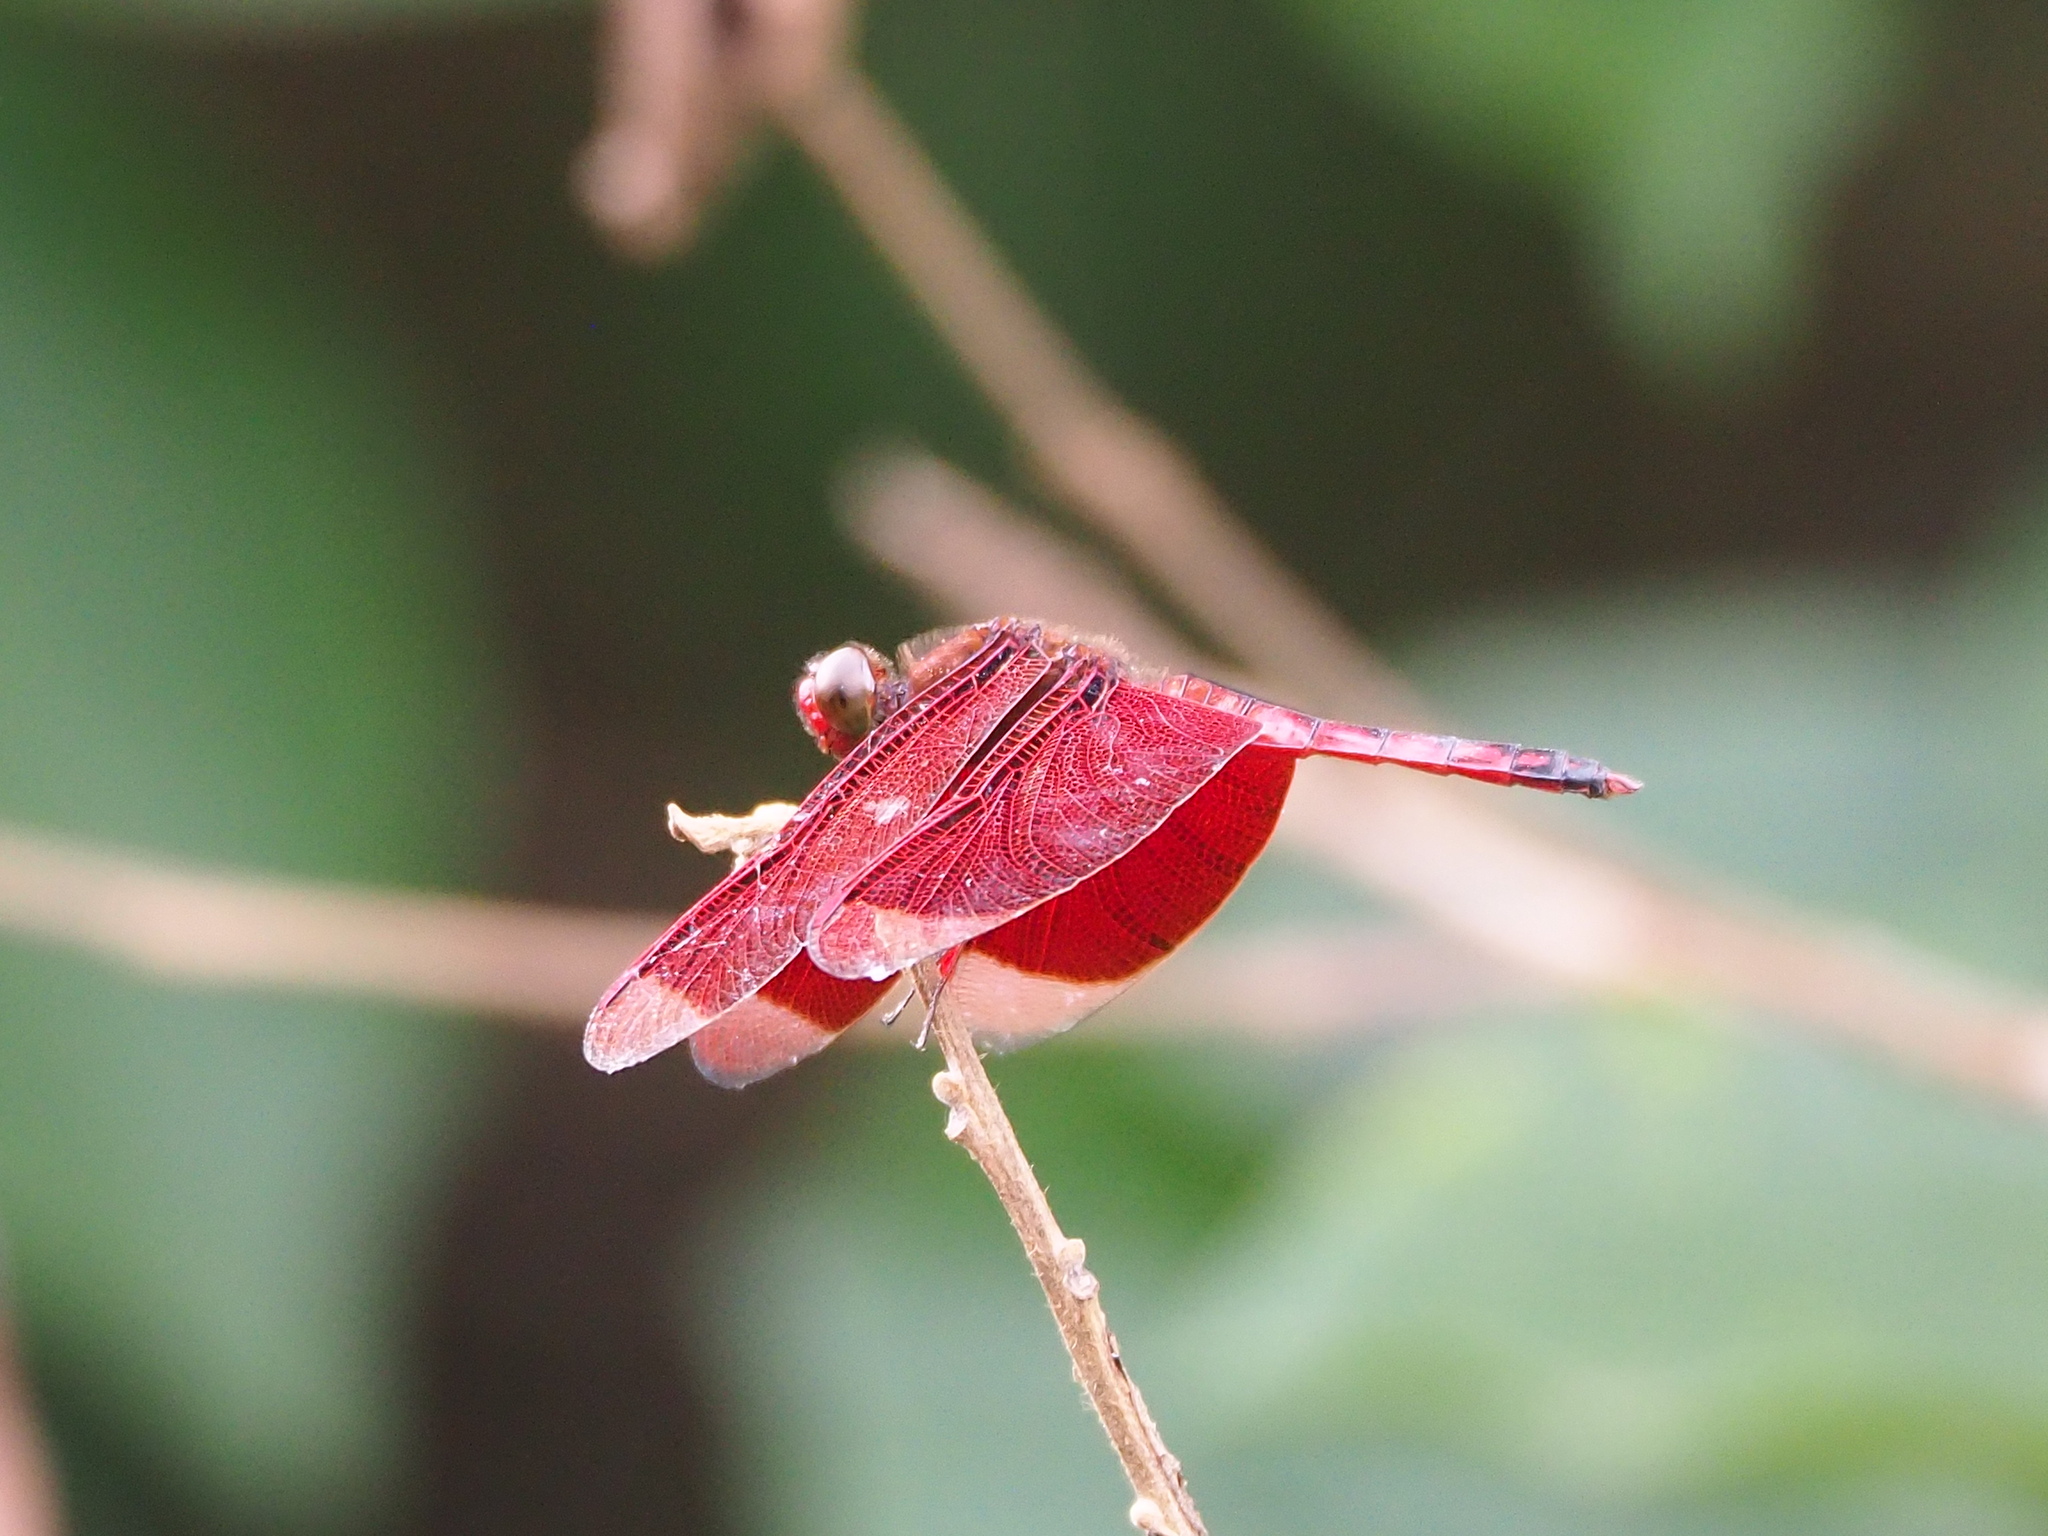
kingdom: Animalia
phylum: Arthropoda
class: Insecta
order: Odonata
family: Libellulidae
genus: Neurothemis
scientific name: Neurothemis taiwanensis
